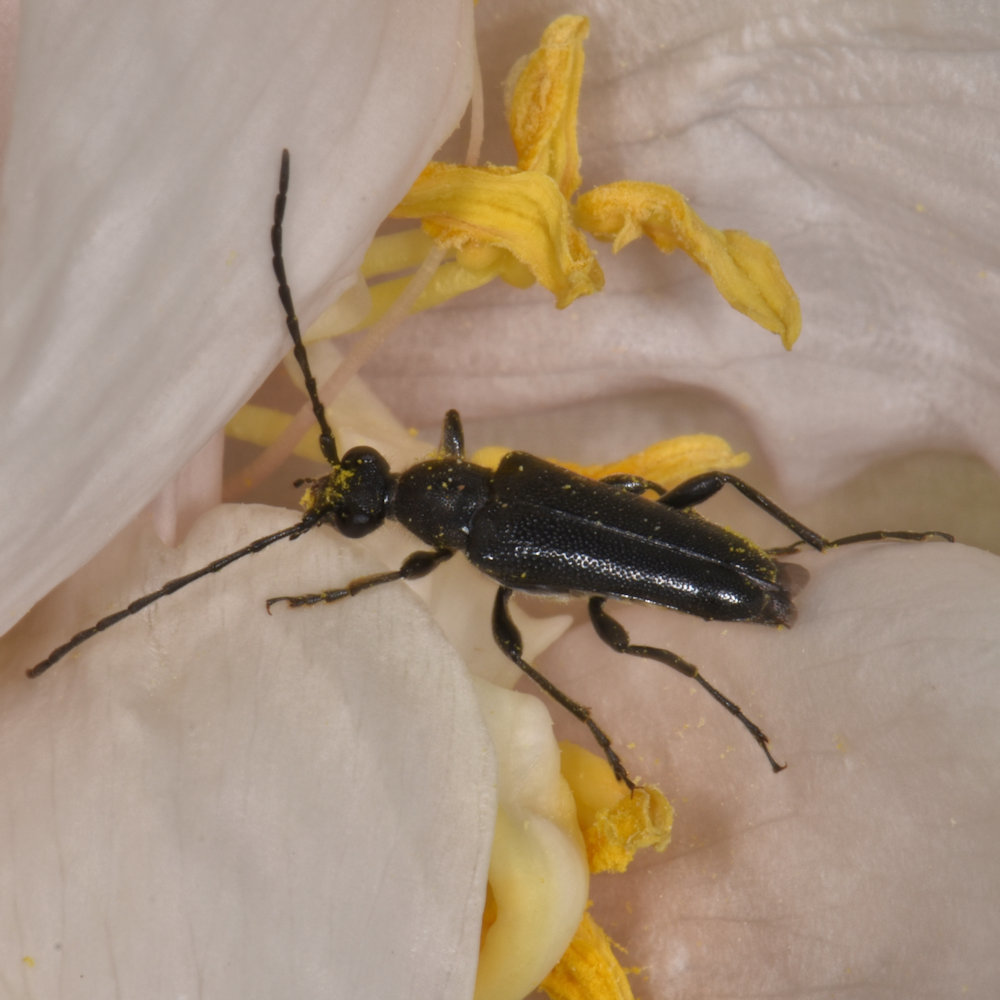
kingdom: Animalia
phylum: Arthropoda
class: Insecta
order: Coleoptera
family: Cerambycidae
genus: Anoplodera
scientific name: Anoplodera pubera
